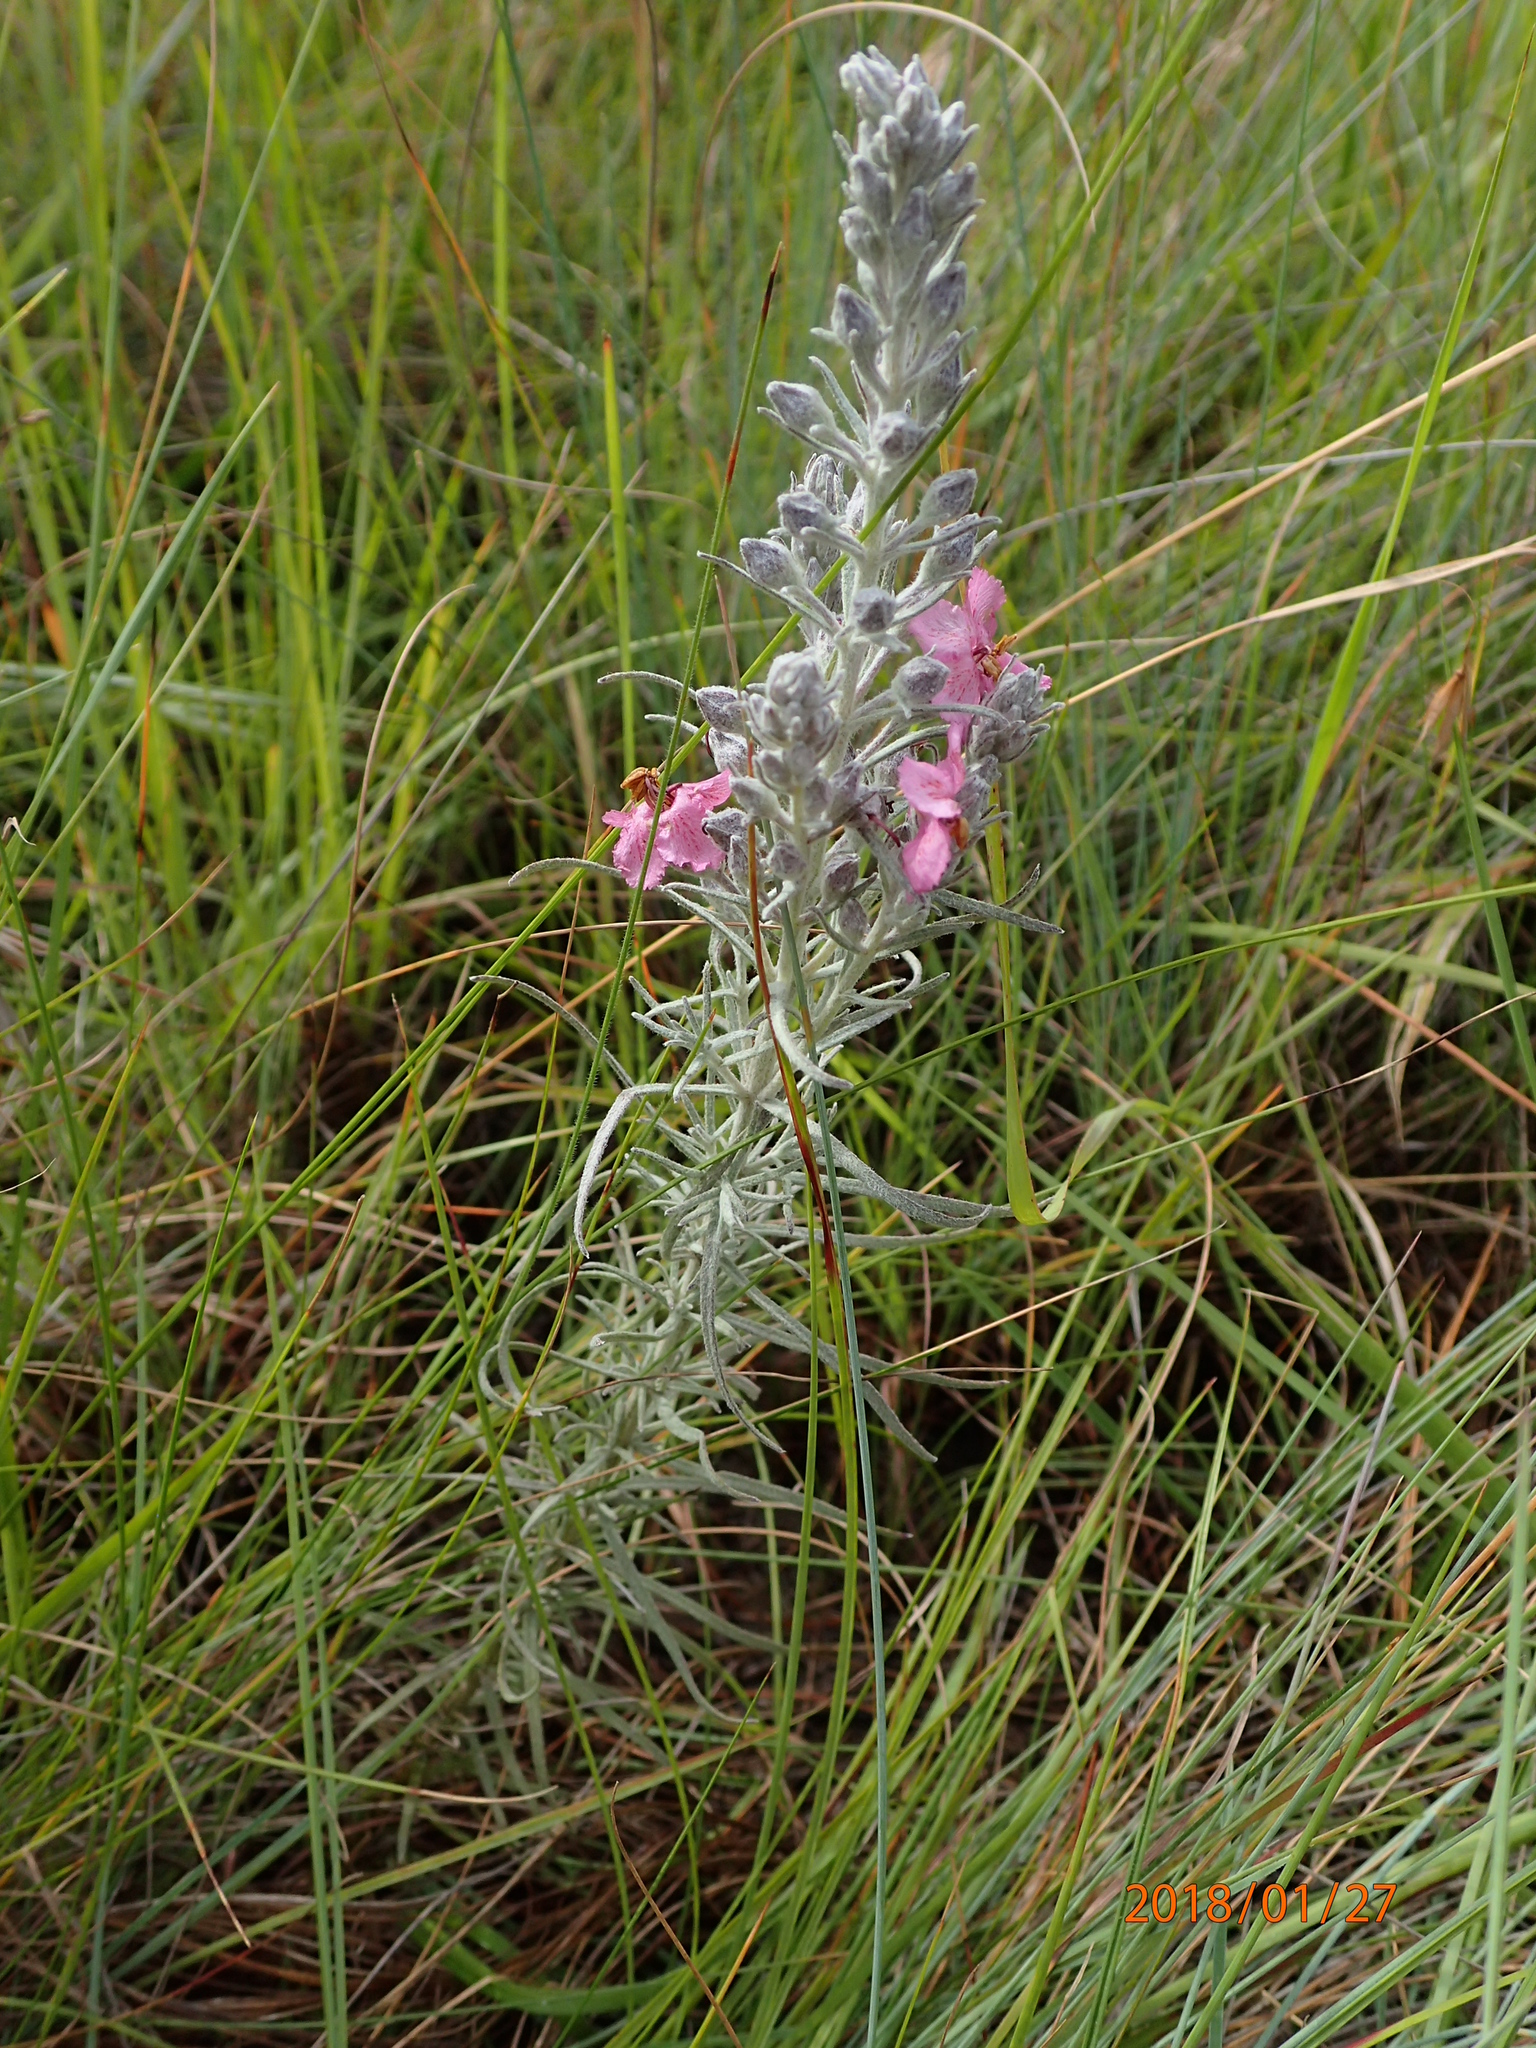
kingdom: Plantae
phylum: Tracheophyta
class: Magnoliopsida
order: Lamiales
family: Orobanchaceae
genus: Sopubia
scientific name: Sopubia cana
